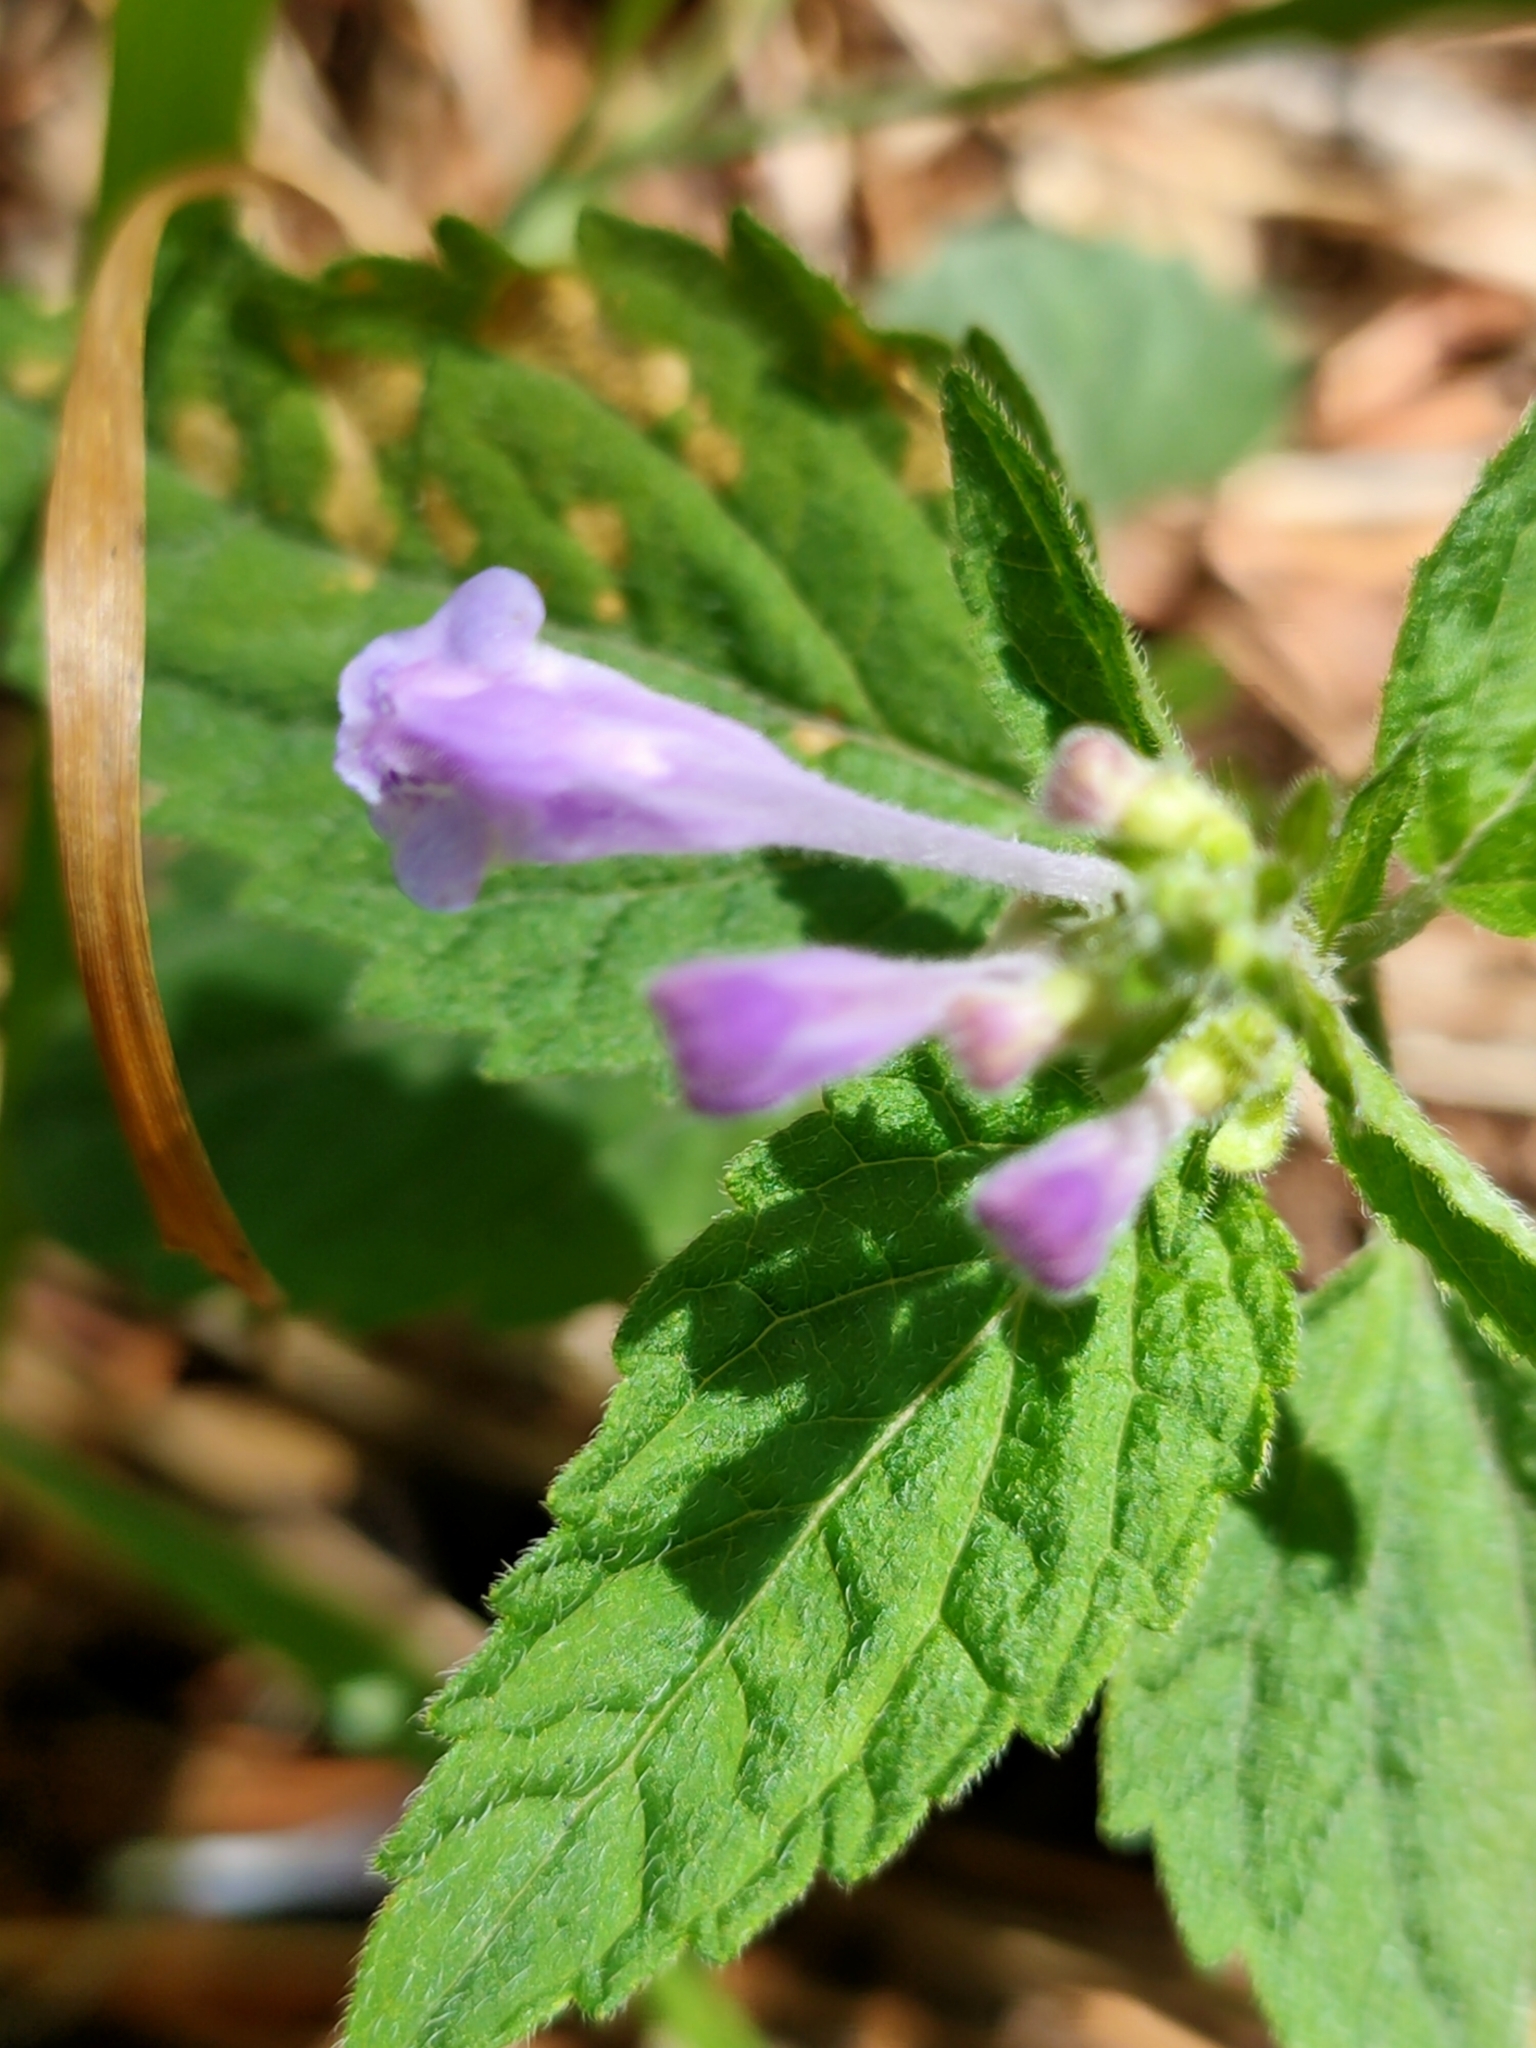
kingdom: Plantae
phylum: Tracheophyta
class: Magnoliopsida
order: Lamiales
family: Lamiaceae
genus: Scutellaria
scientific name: Scutellaria pekinensis
